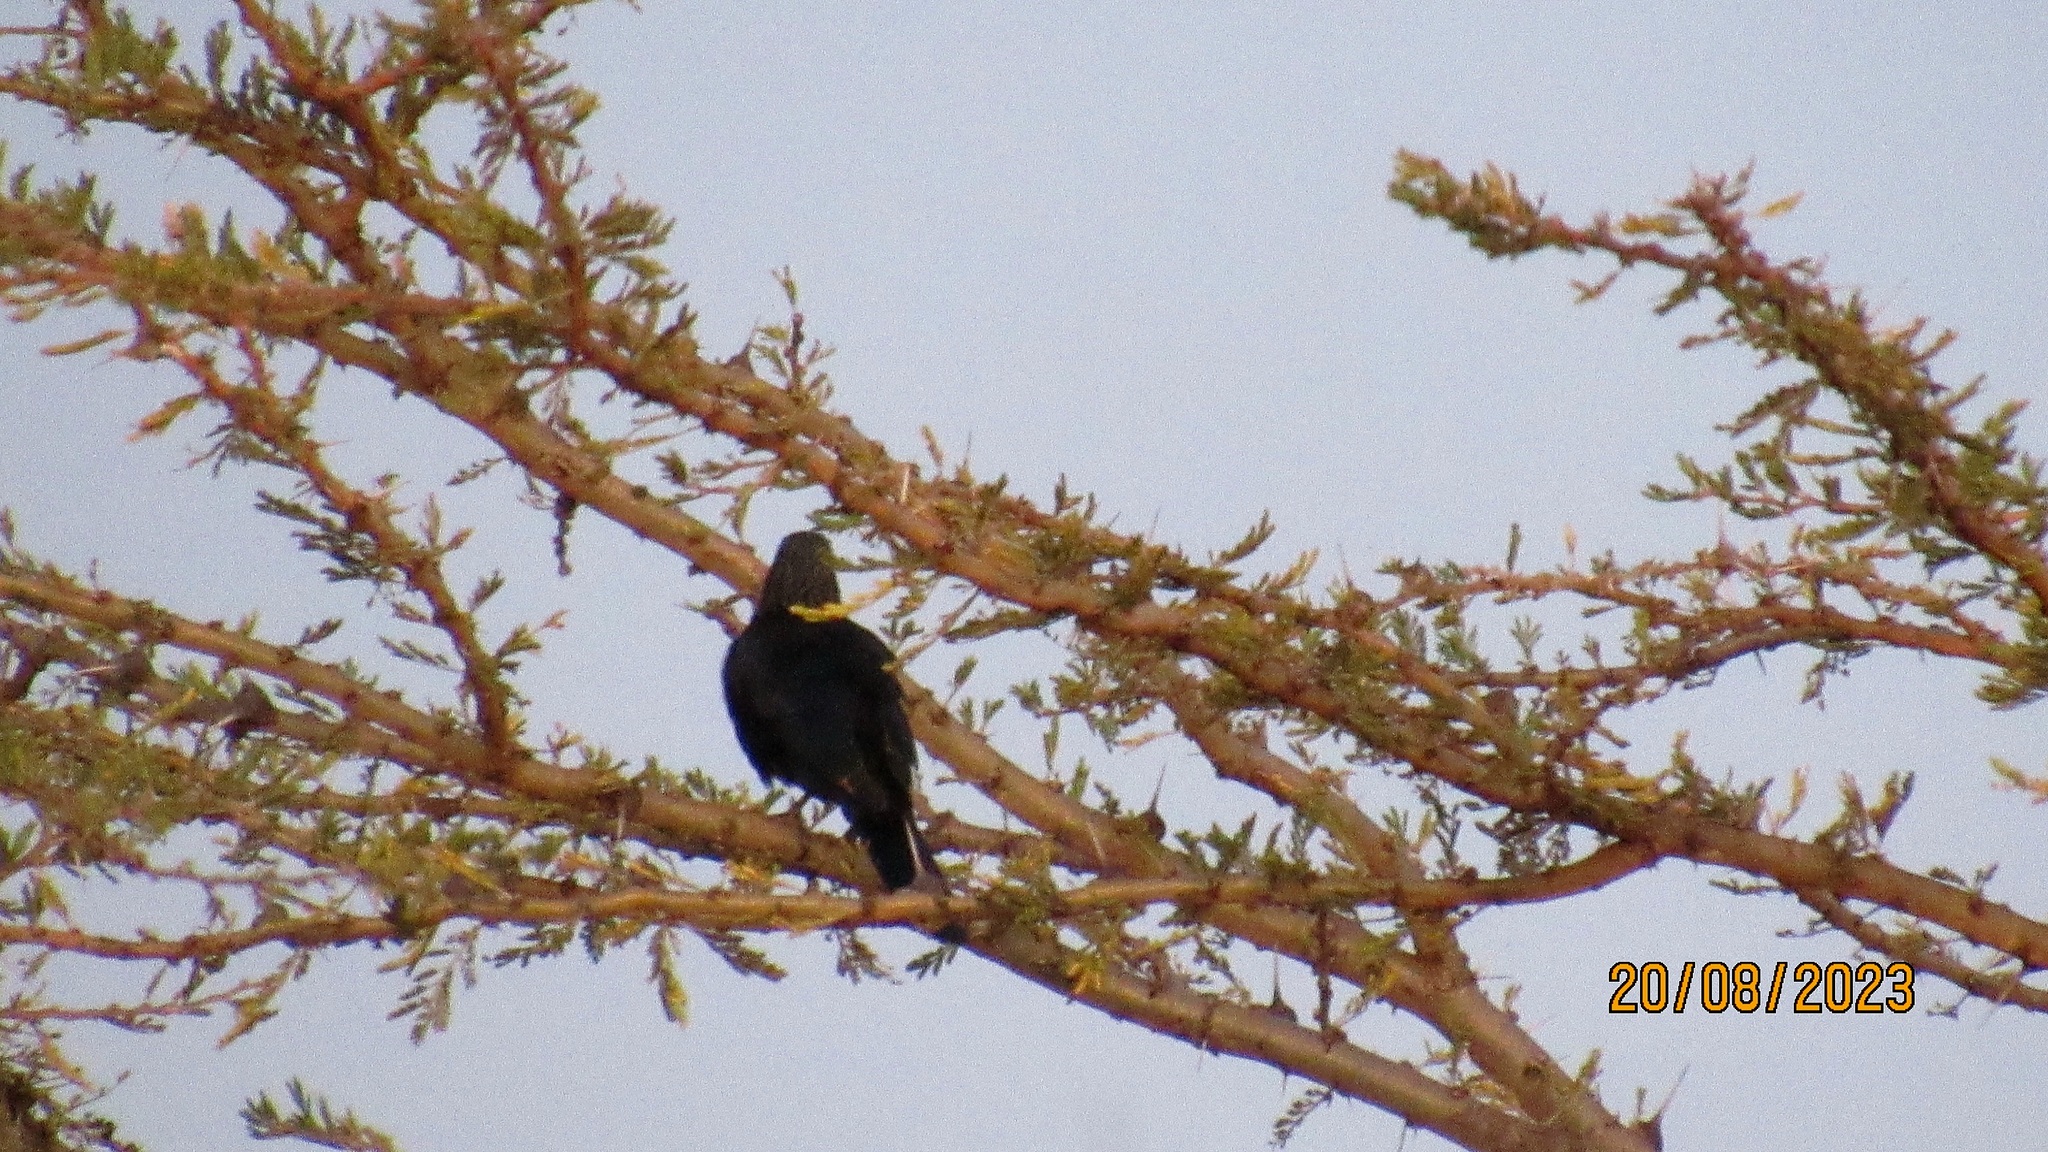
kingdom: Animalia
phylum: Chordata
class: Aves
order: Passeriformes
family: Sturnidae
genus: Onychognathus
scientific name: Onychognathus morio
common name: Red-winged starling
